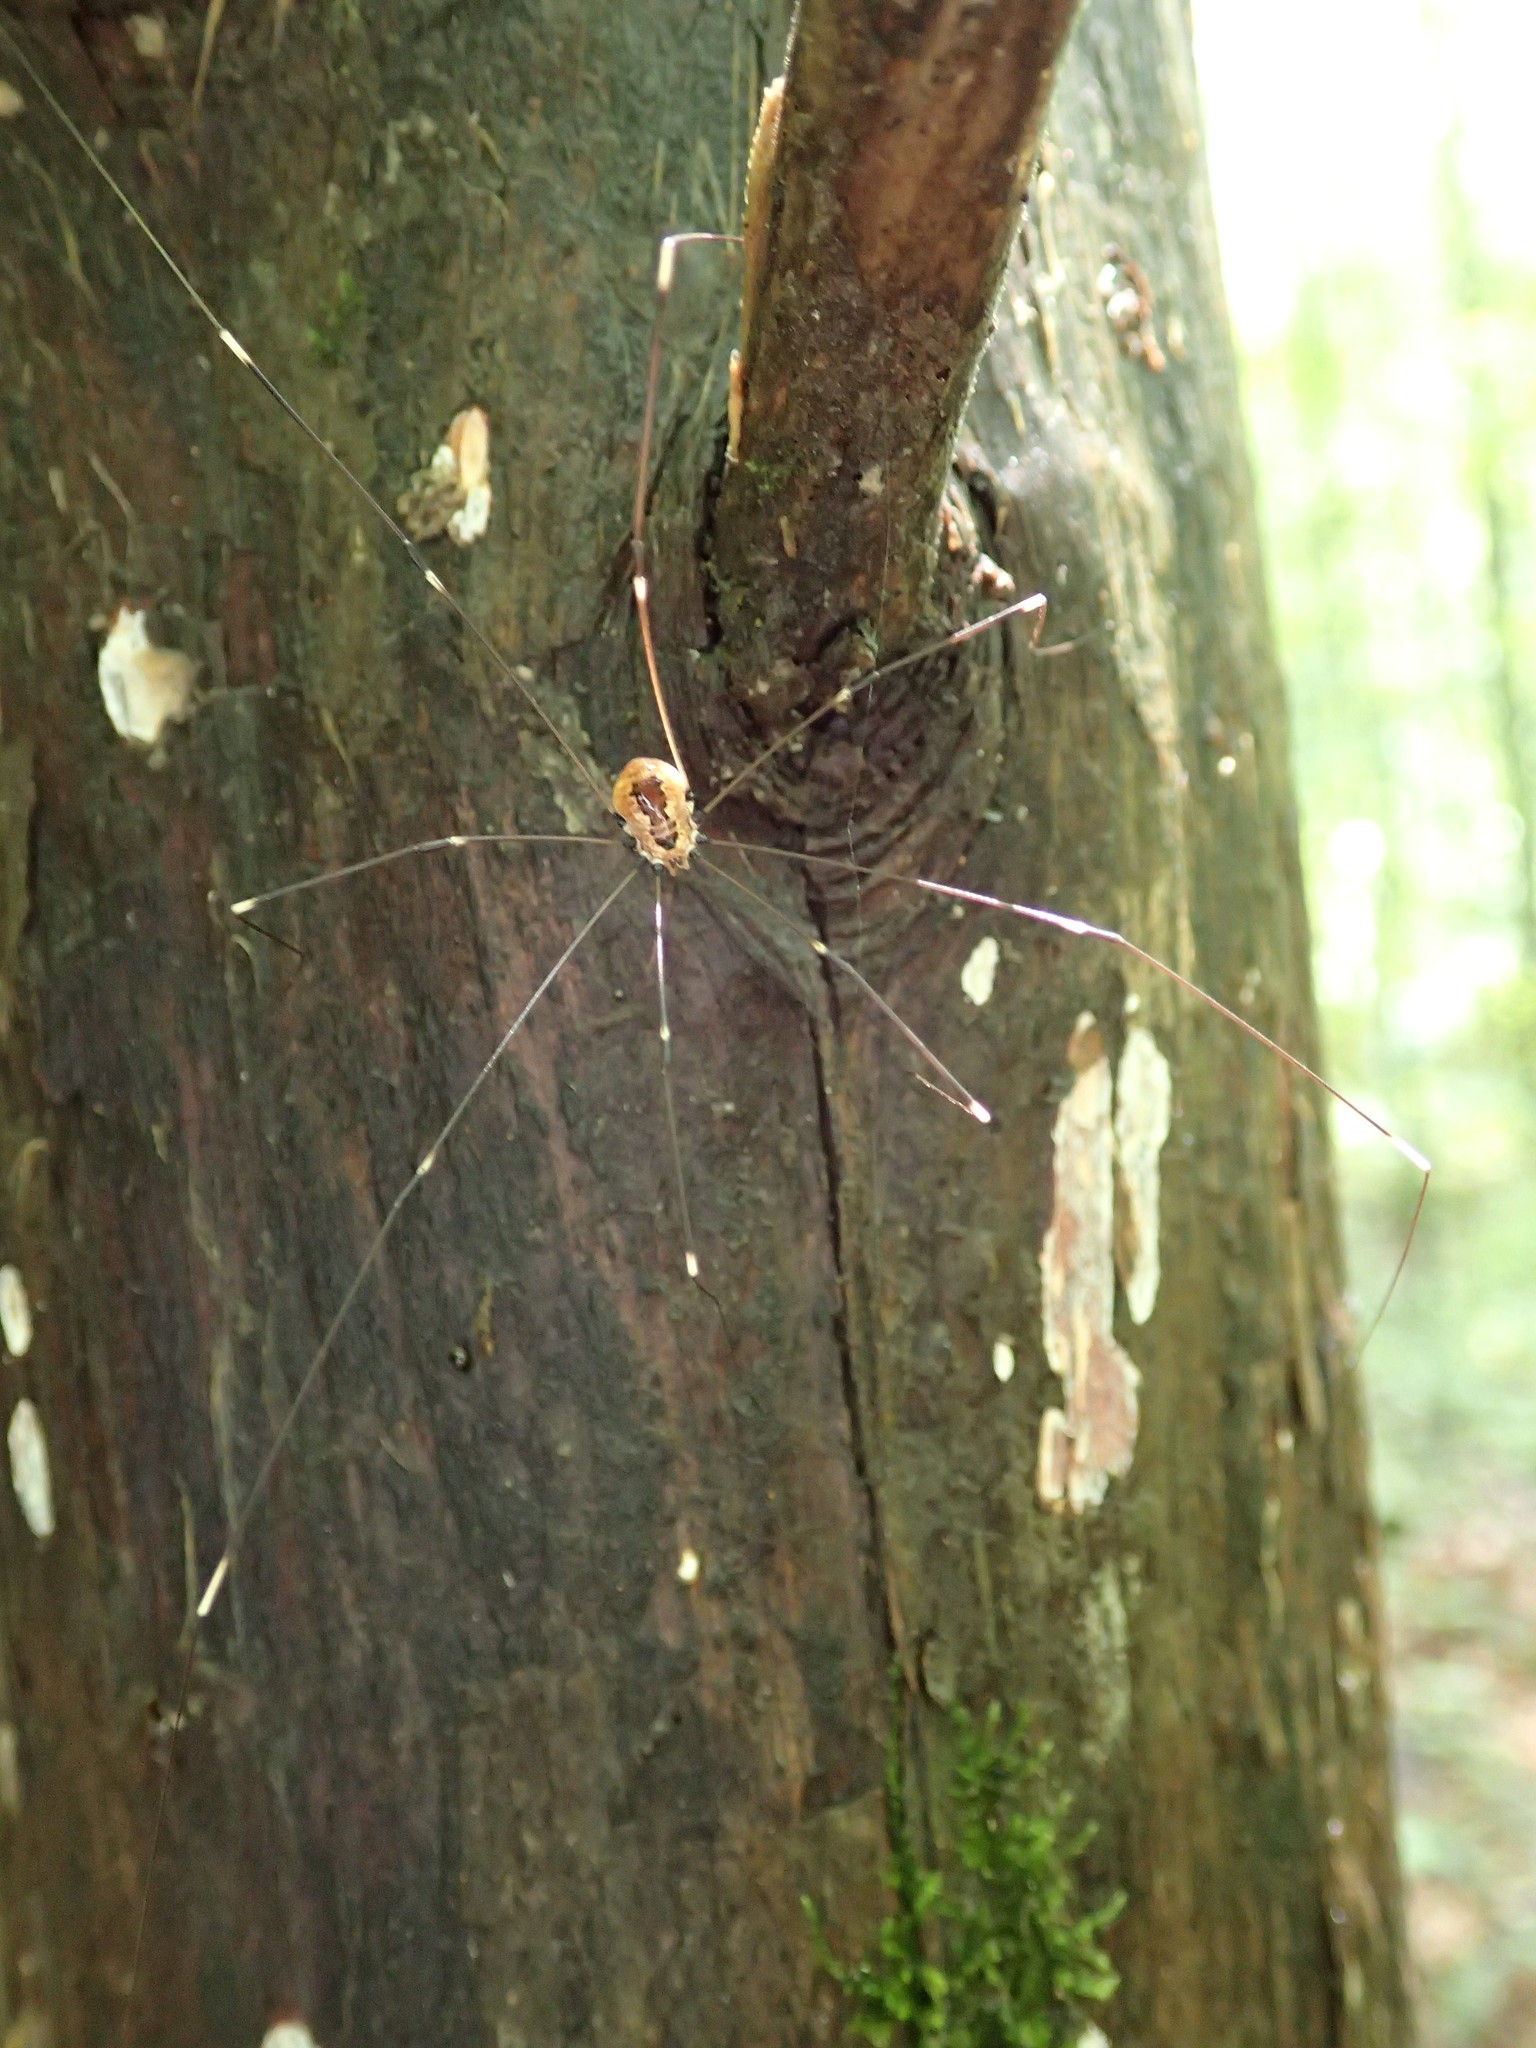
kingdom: Animalia
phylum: Arthropoda
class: Arachnida
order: Opiliones
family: Sclerosomatidae
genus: Leiobunum
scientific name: Leiobunum aldrichi
